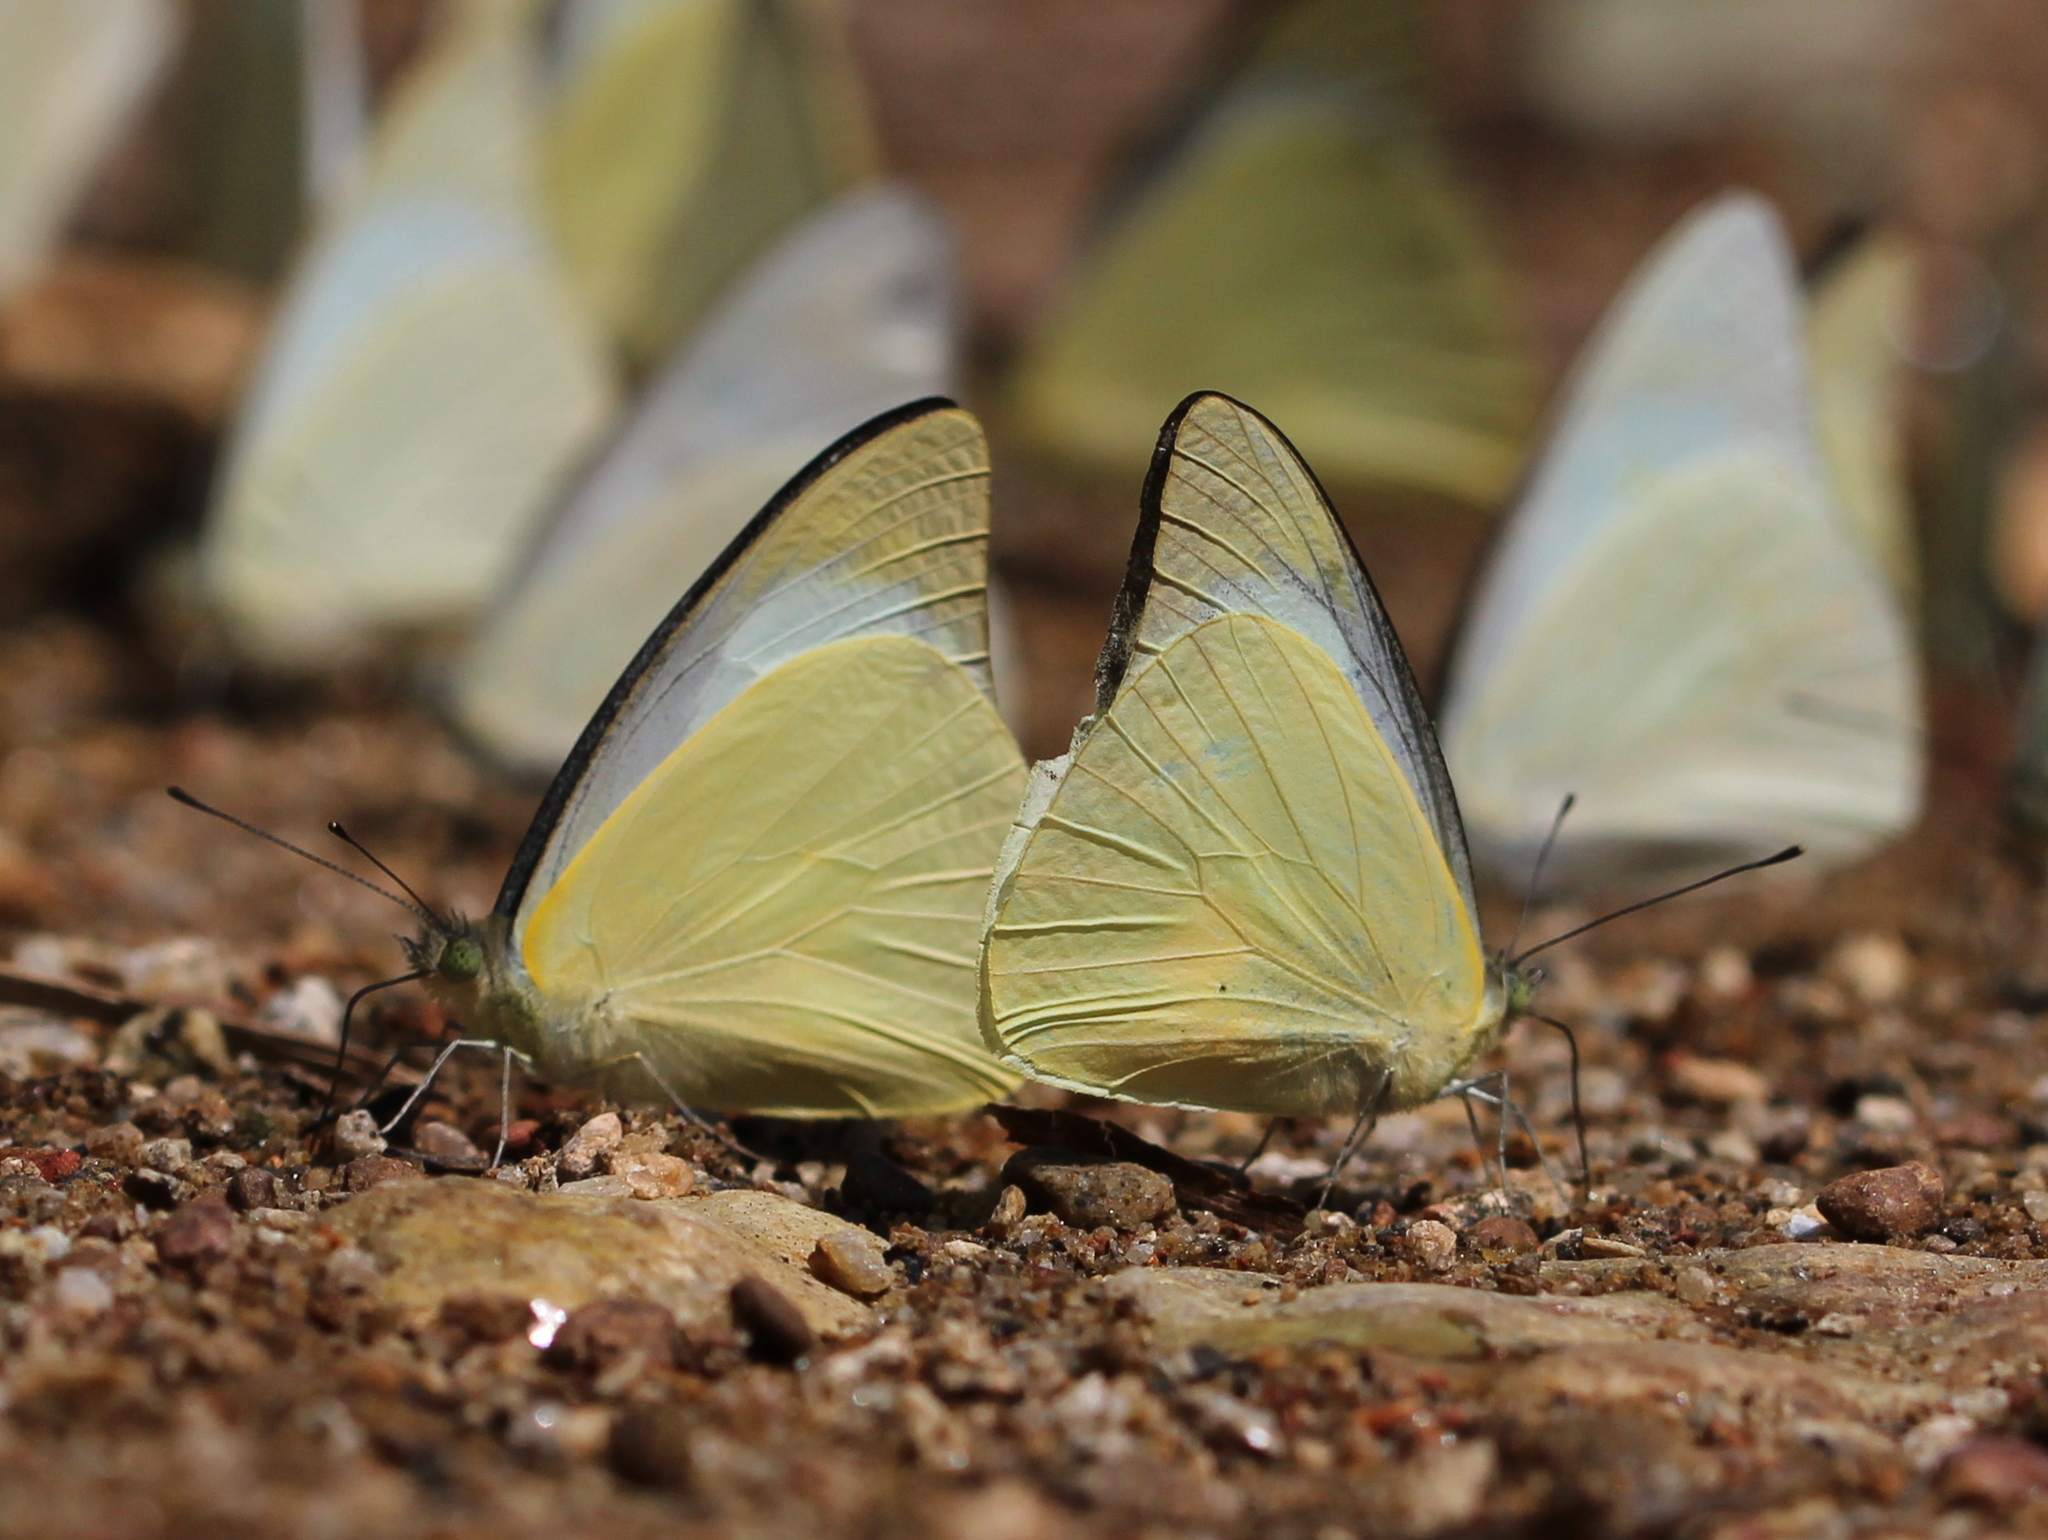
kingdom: Animalia
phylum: Arthropoda
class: Insecta
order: Lepidoptera
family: Pieridae
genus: Appias
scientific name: Appias albina
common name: Common albatross
